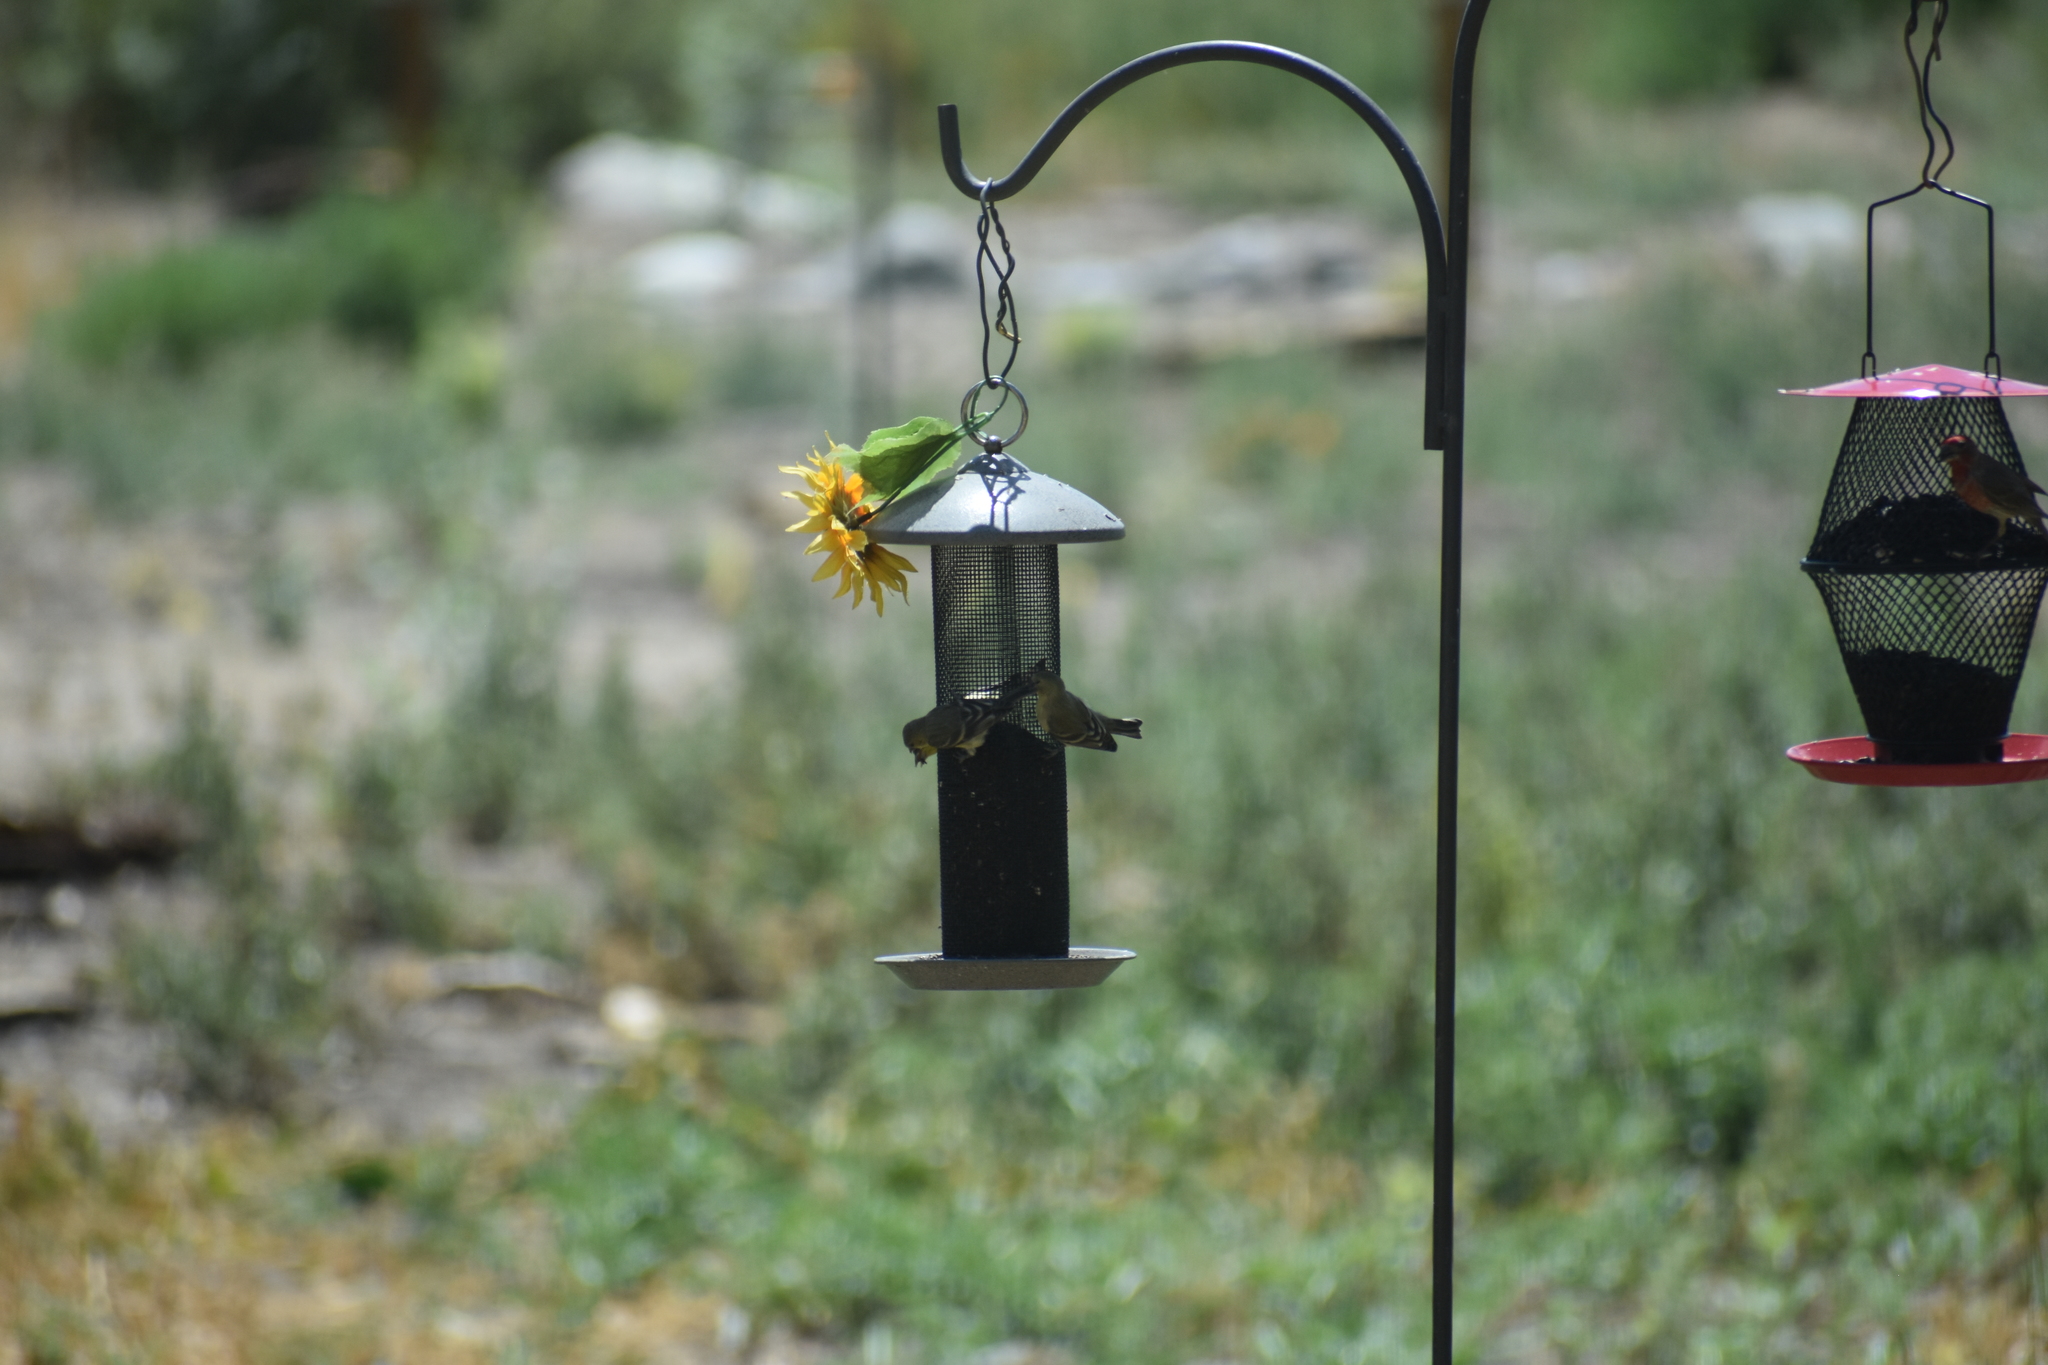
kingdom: Animalia
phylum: Chordata
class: Aves
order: Passeriformes
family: Fringillidae
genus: Spinus
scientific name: Spinus psaltria
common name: Lesser goldfinch
